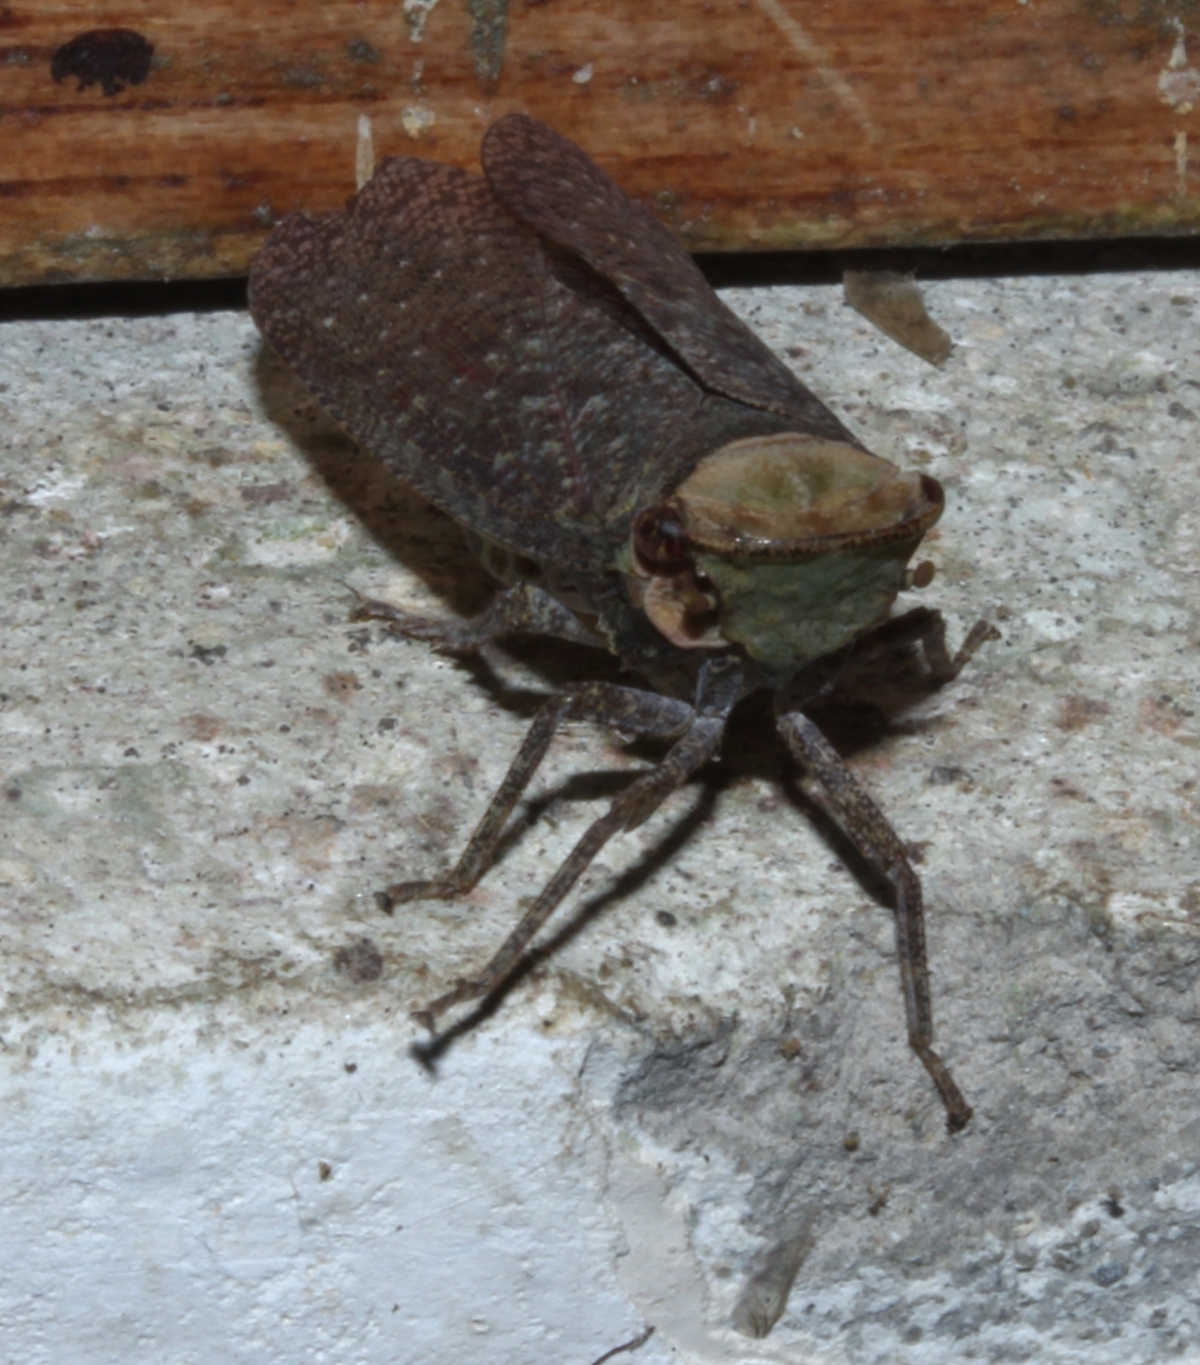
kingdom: Animalia
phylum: Arthropoda
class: Insecta
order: Hemiptera
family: Fulgoridae
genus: Calyptoproctus
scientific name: Calyptoproctus
